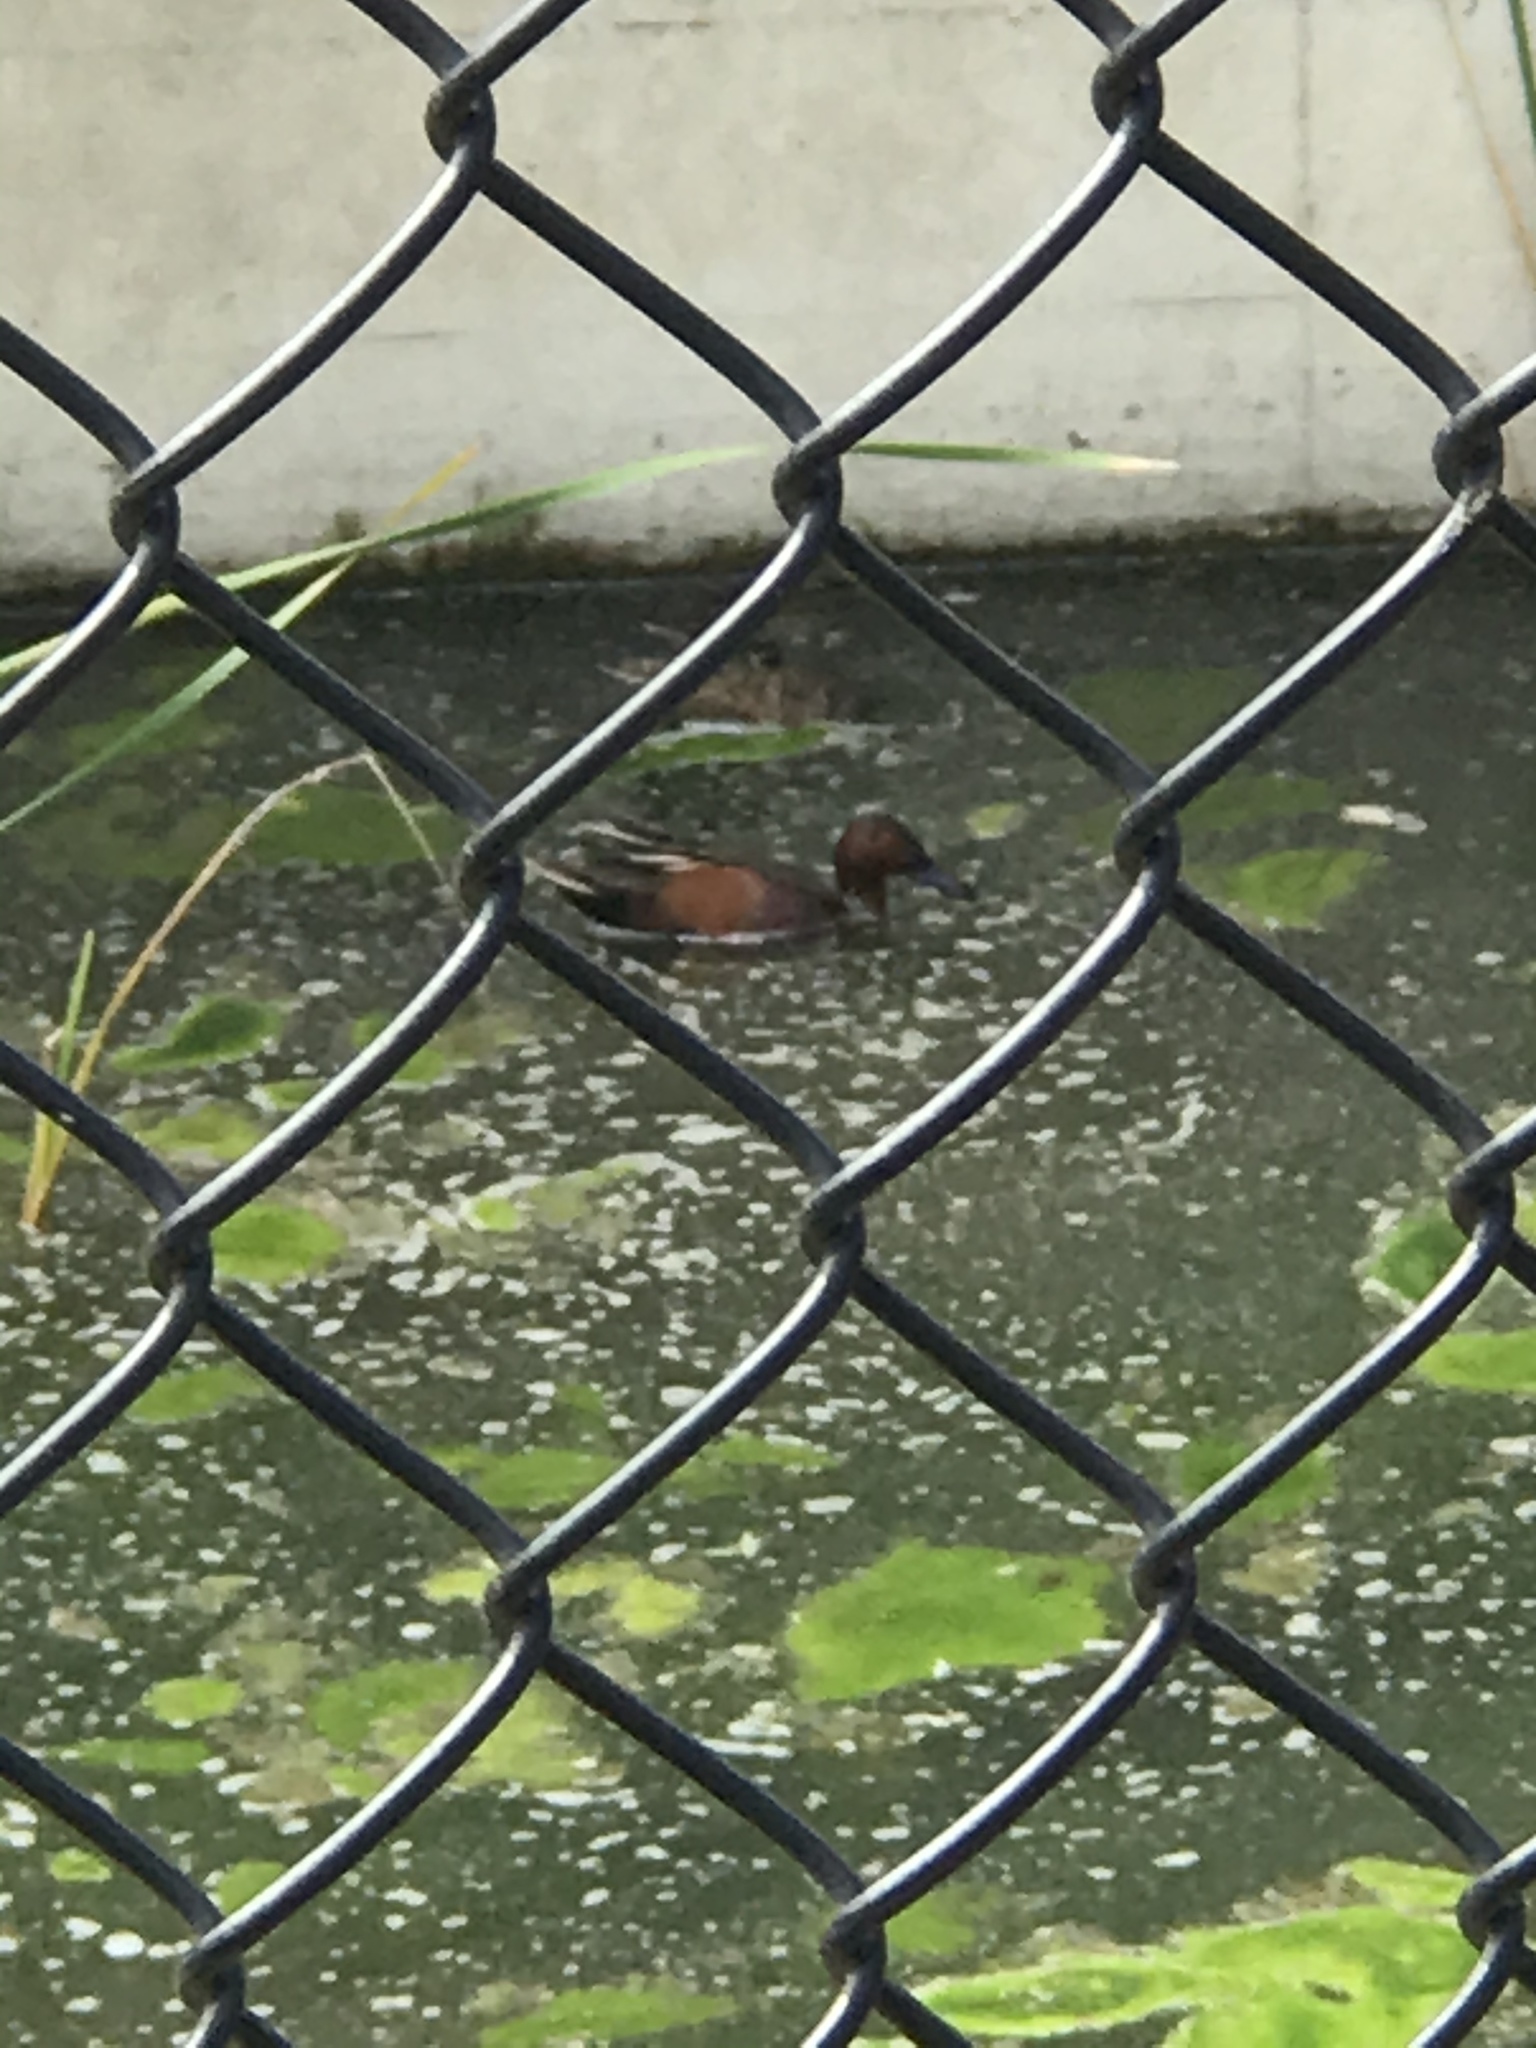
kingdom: Animalia
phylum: Chordata
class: Aves
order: Anseriformes
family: Anatidae
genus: Spatula
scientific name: Spatula cyanoptera
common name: Cinnamon teal
